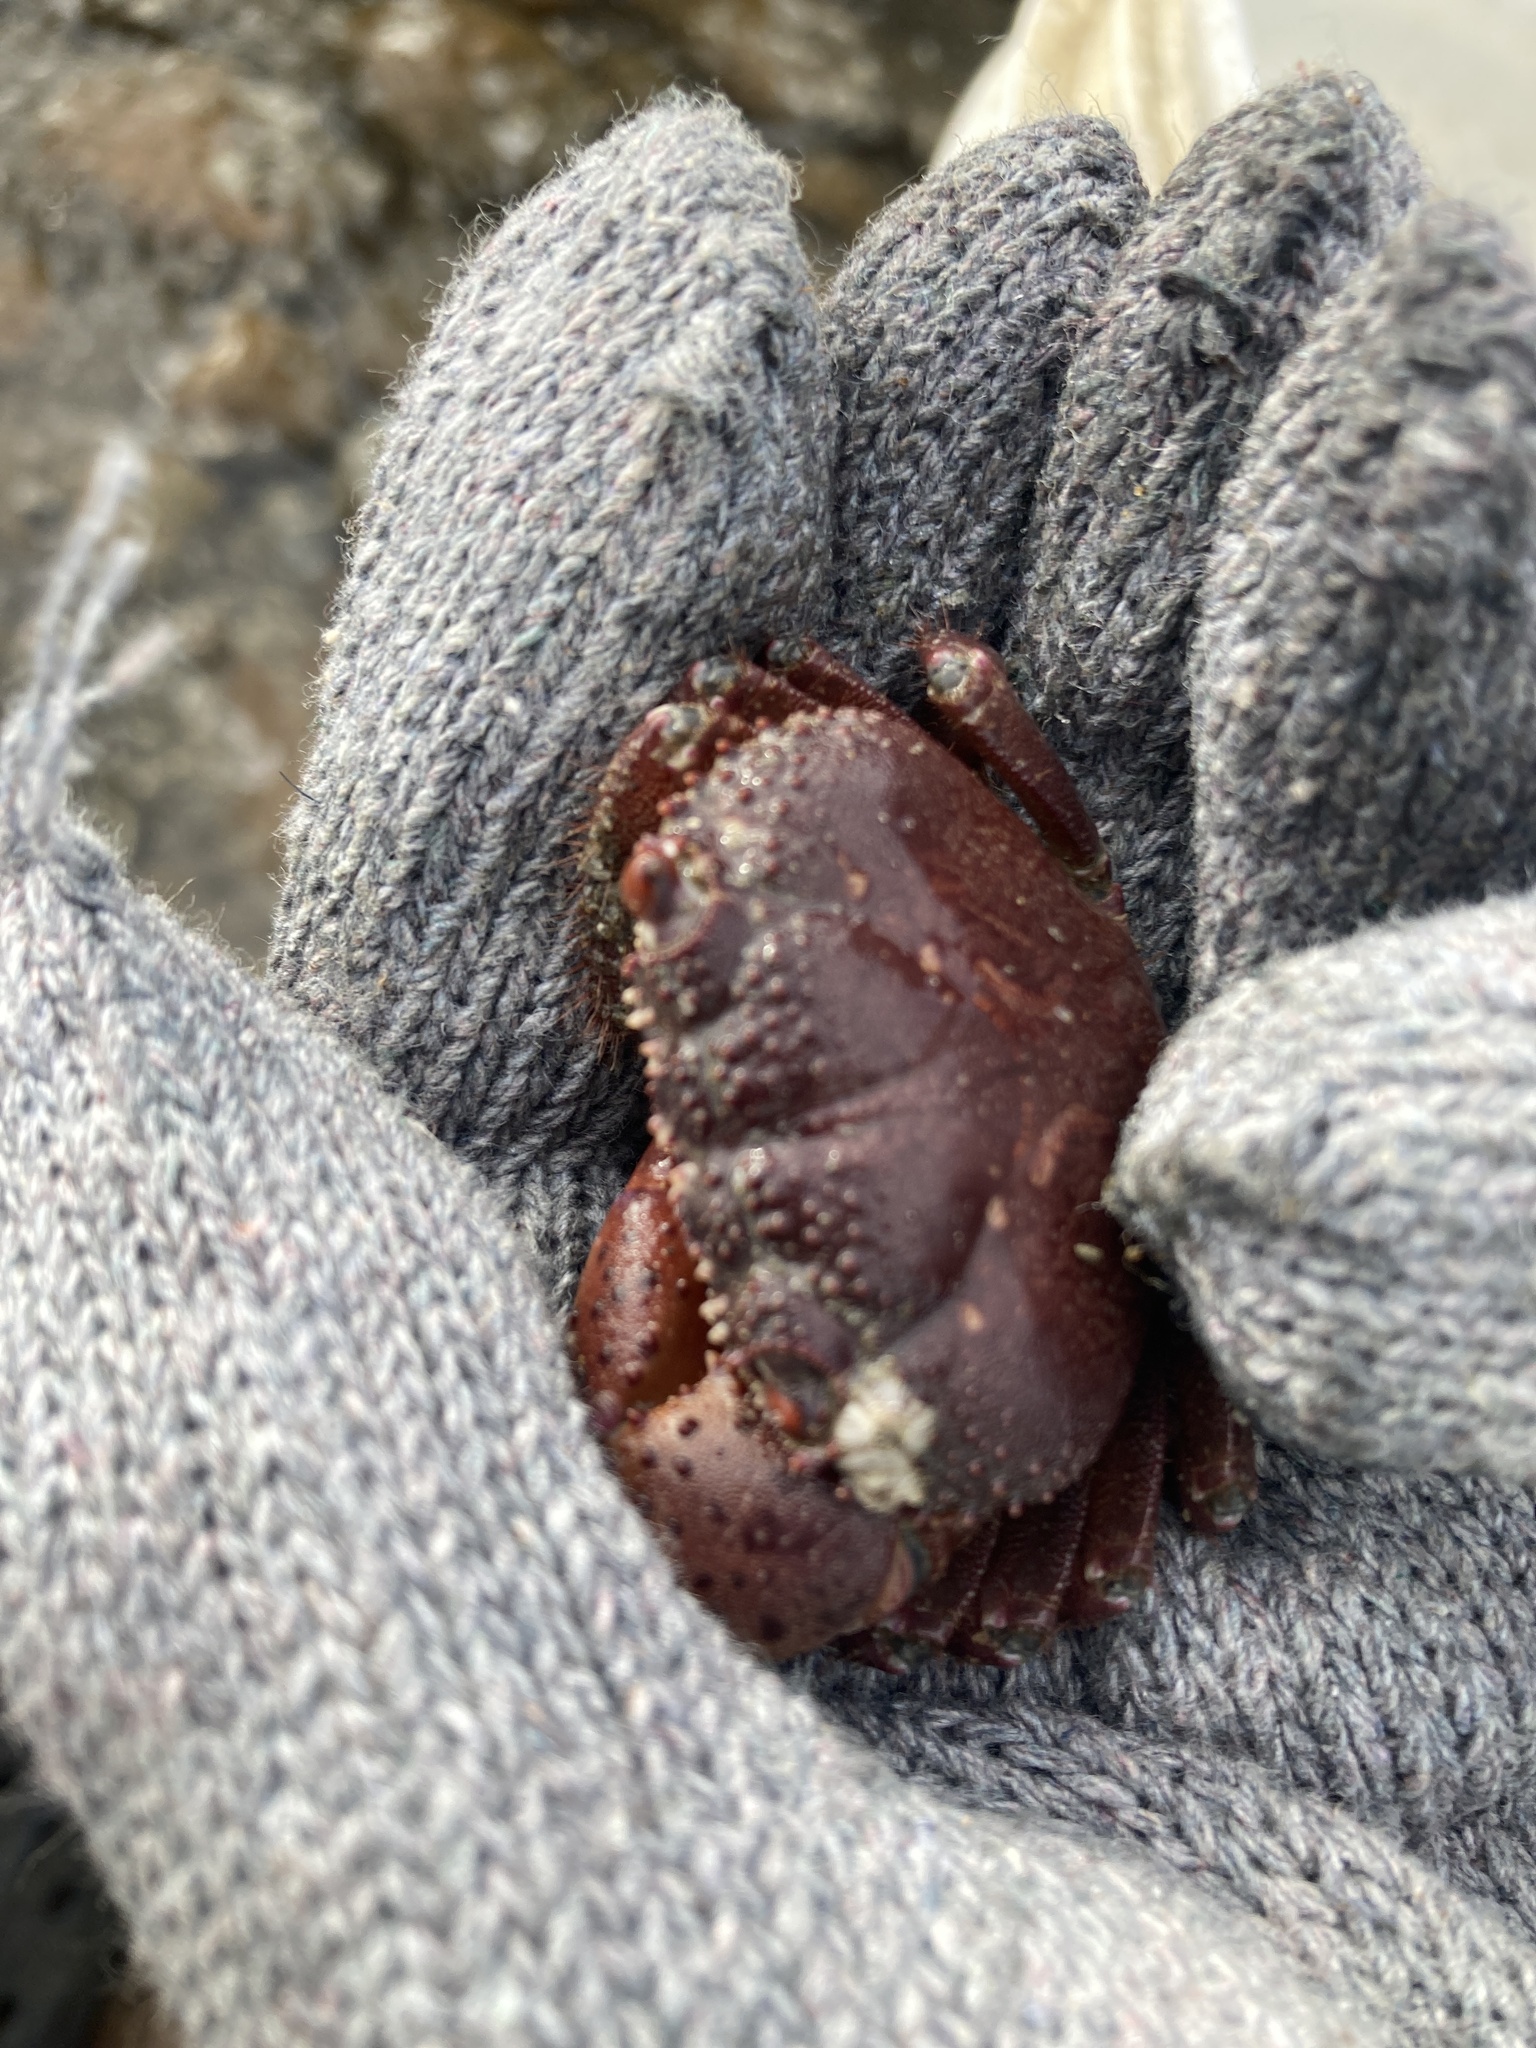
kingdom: Animalia
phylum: Arthropoda
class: Malacostraca
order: Decapoda
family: Eriphiidae
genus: Eriphia
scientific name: Eriphia ferox
